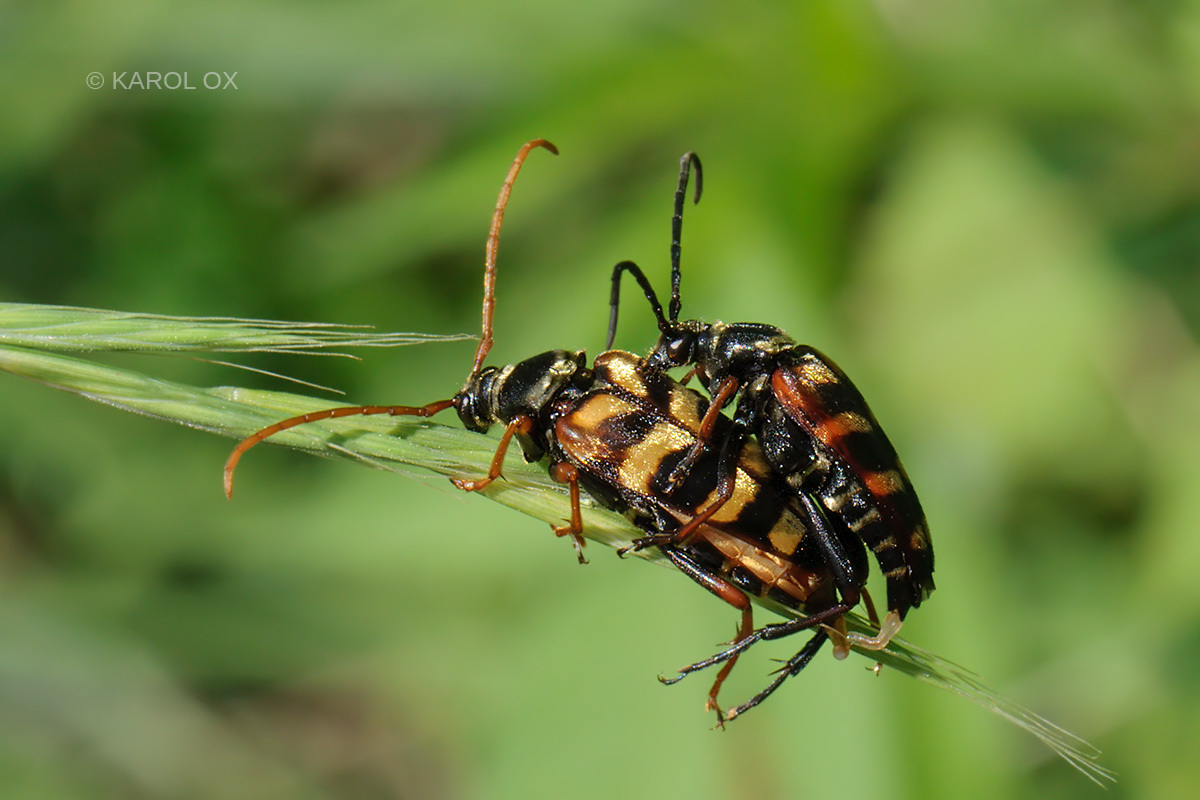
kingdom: Animalia
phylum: Arthropoda
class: Insecta
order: Coleoptera
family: Cerambycidae
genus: Leptura
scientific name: Leptura aurulenta
